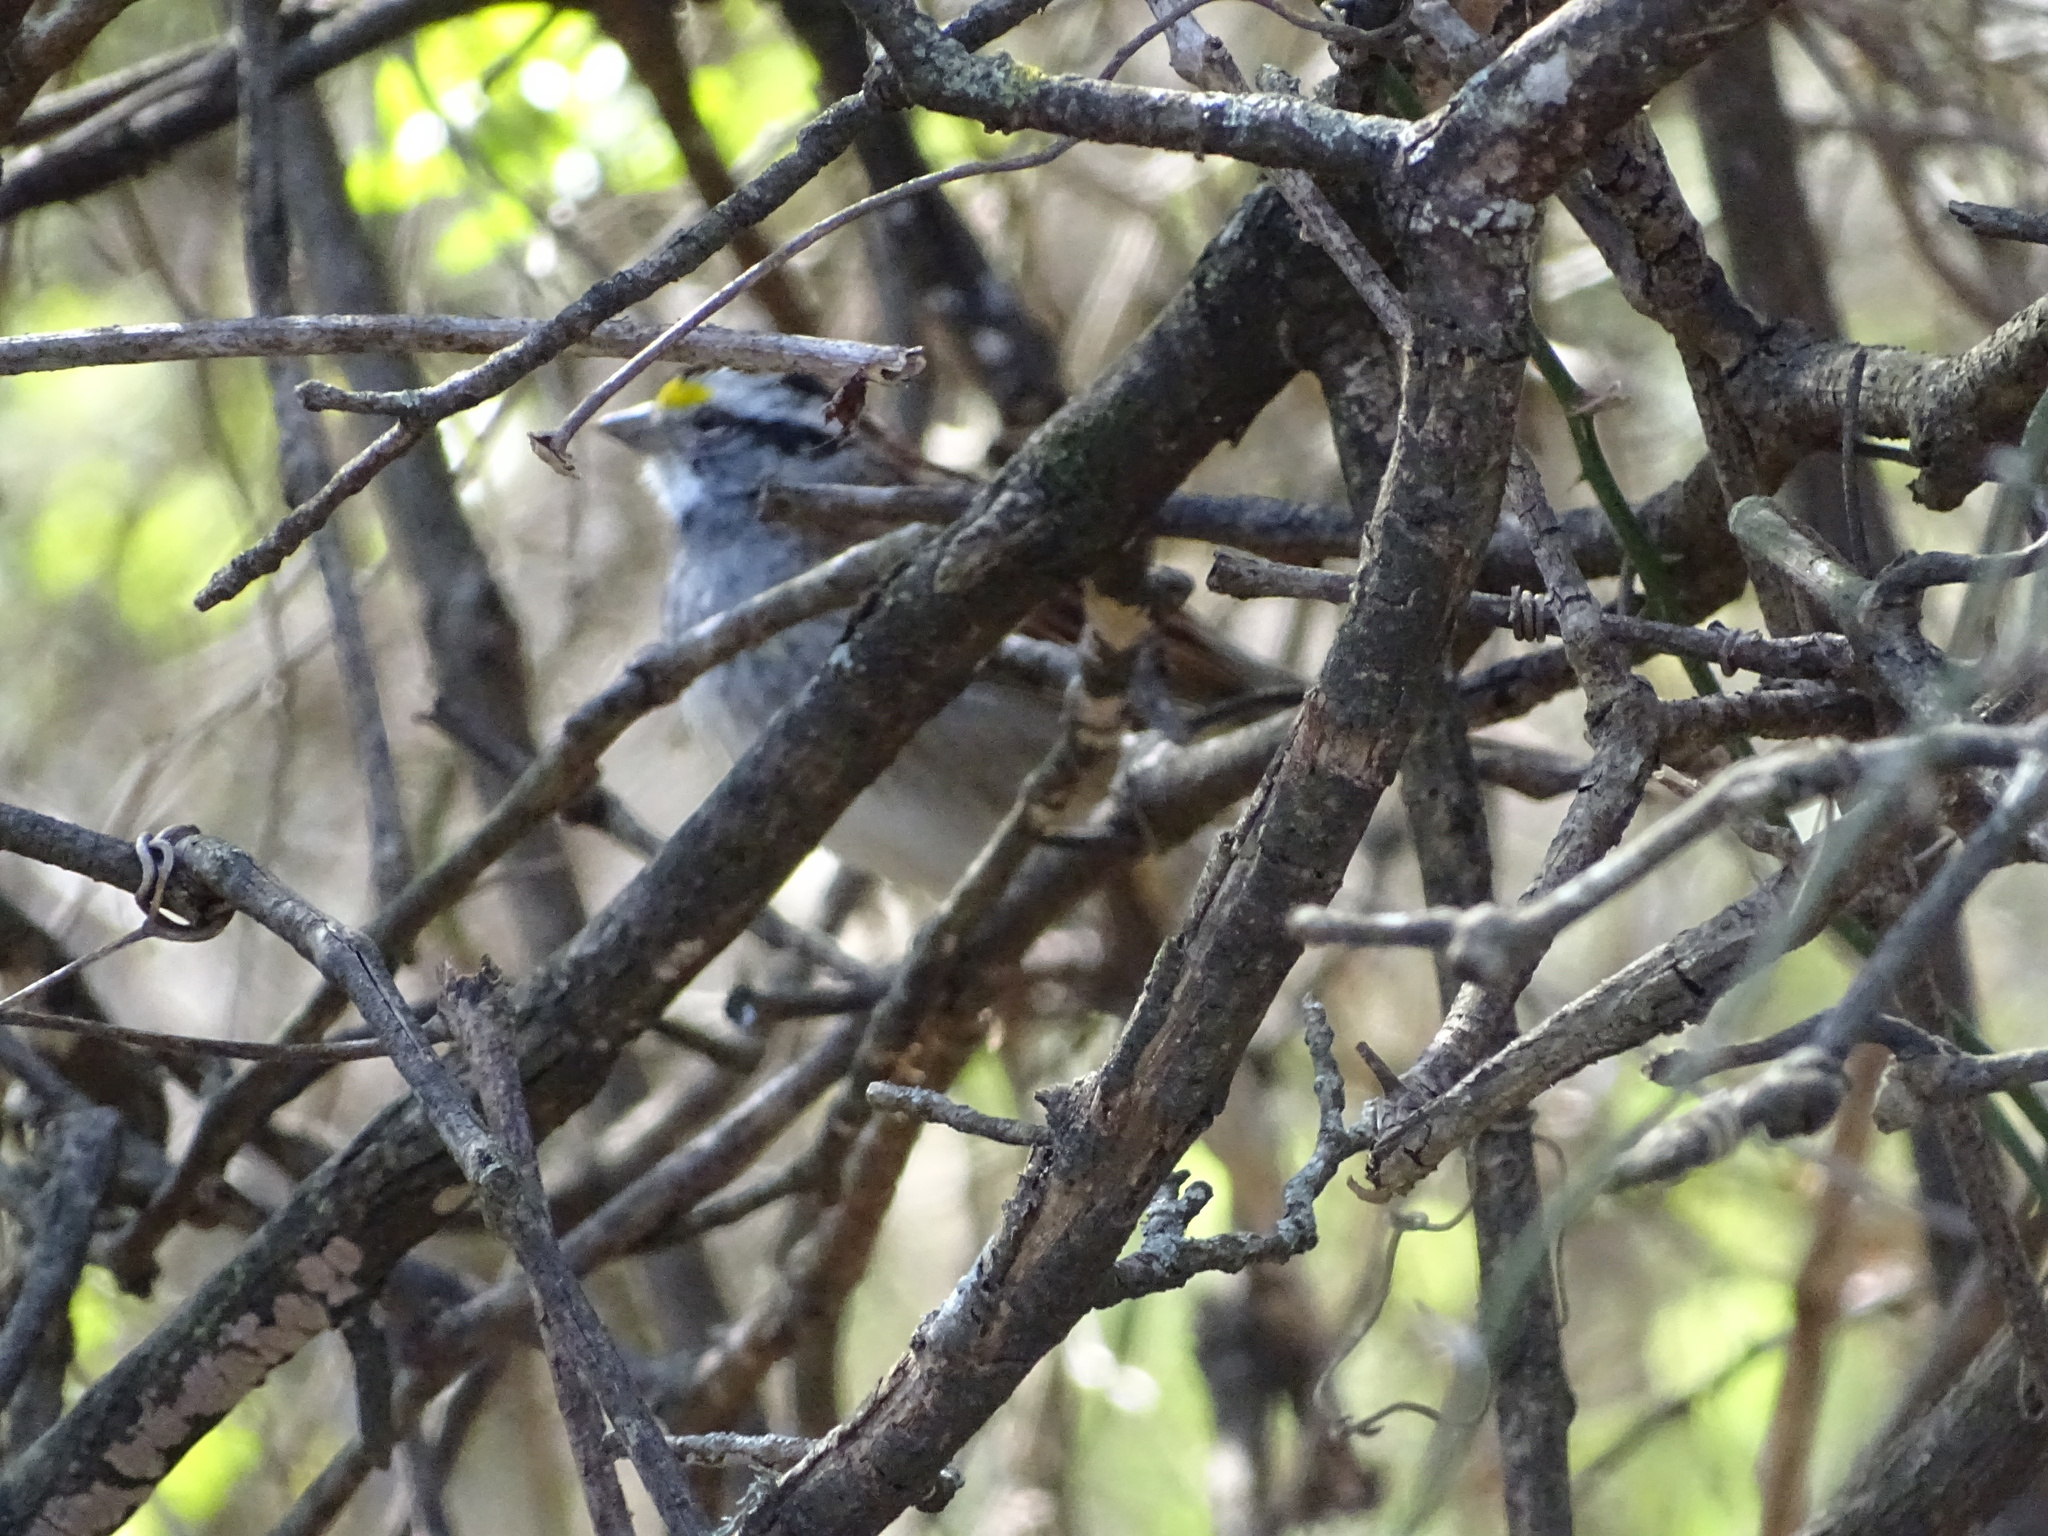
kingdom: Animalia
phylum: Chordata
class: Aves
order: Passeriformes
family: Passerellidae
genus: Zonotrichia
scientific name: Zonotrichia albicollis
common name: White-throated sparrow
